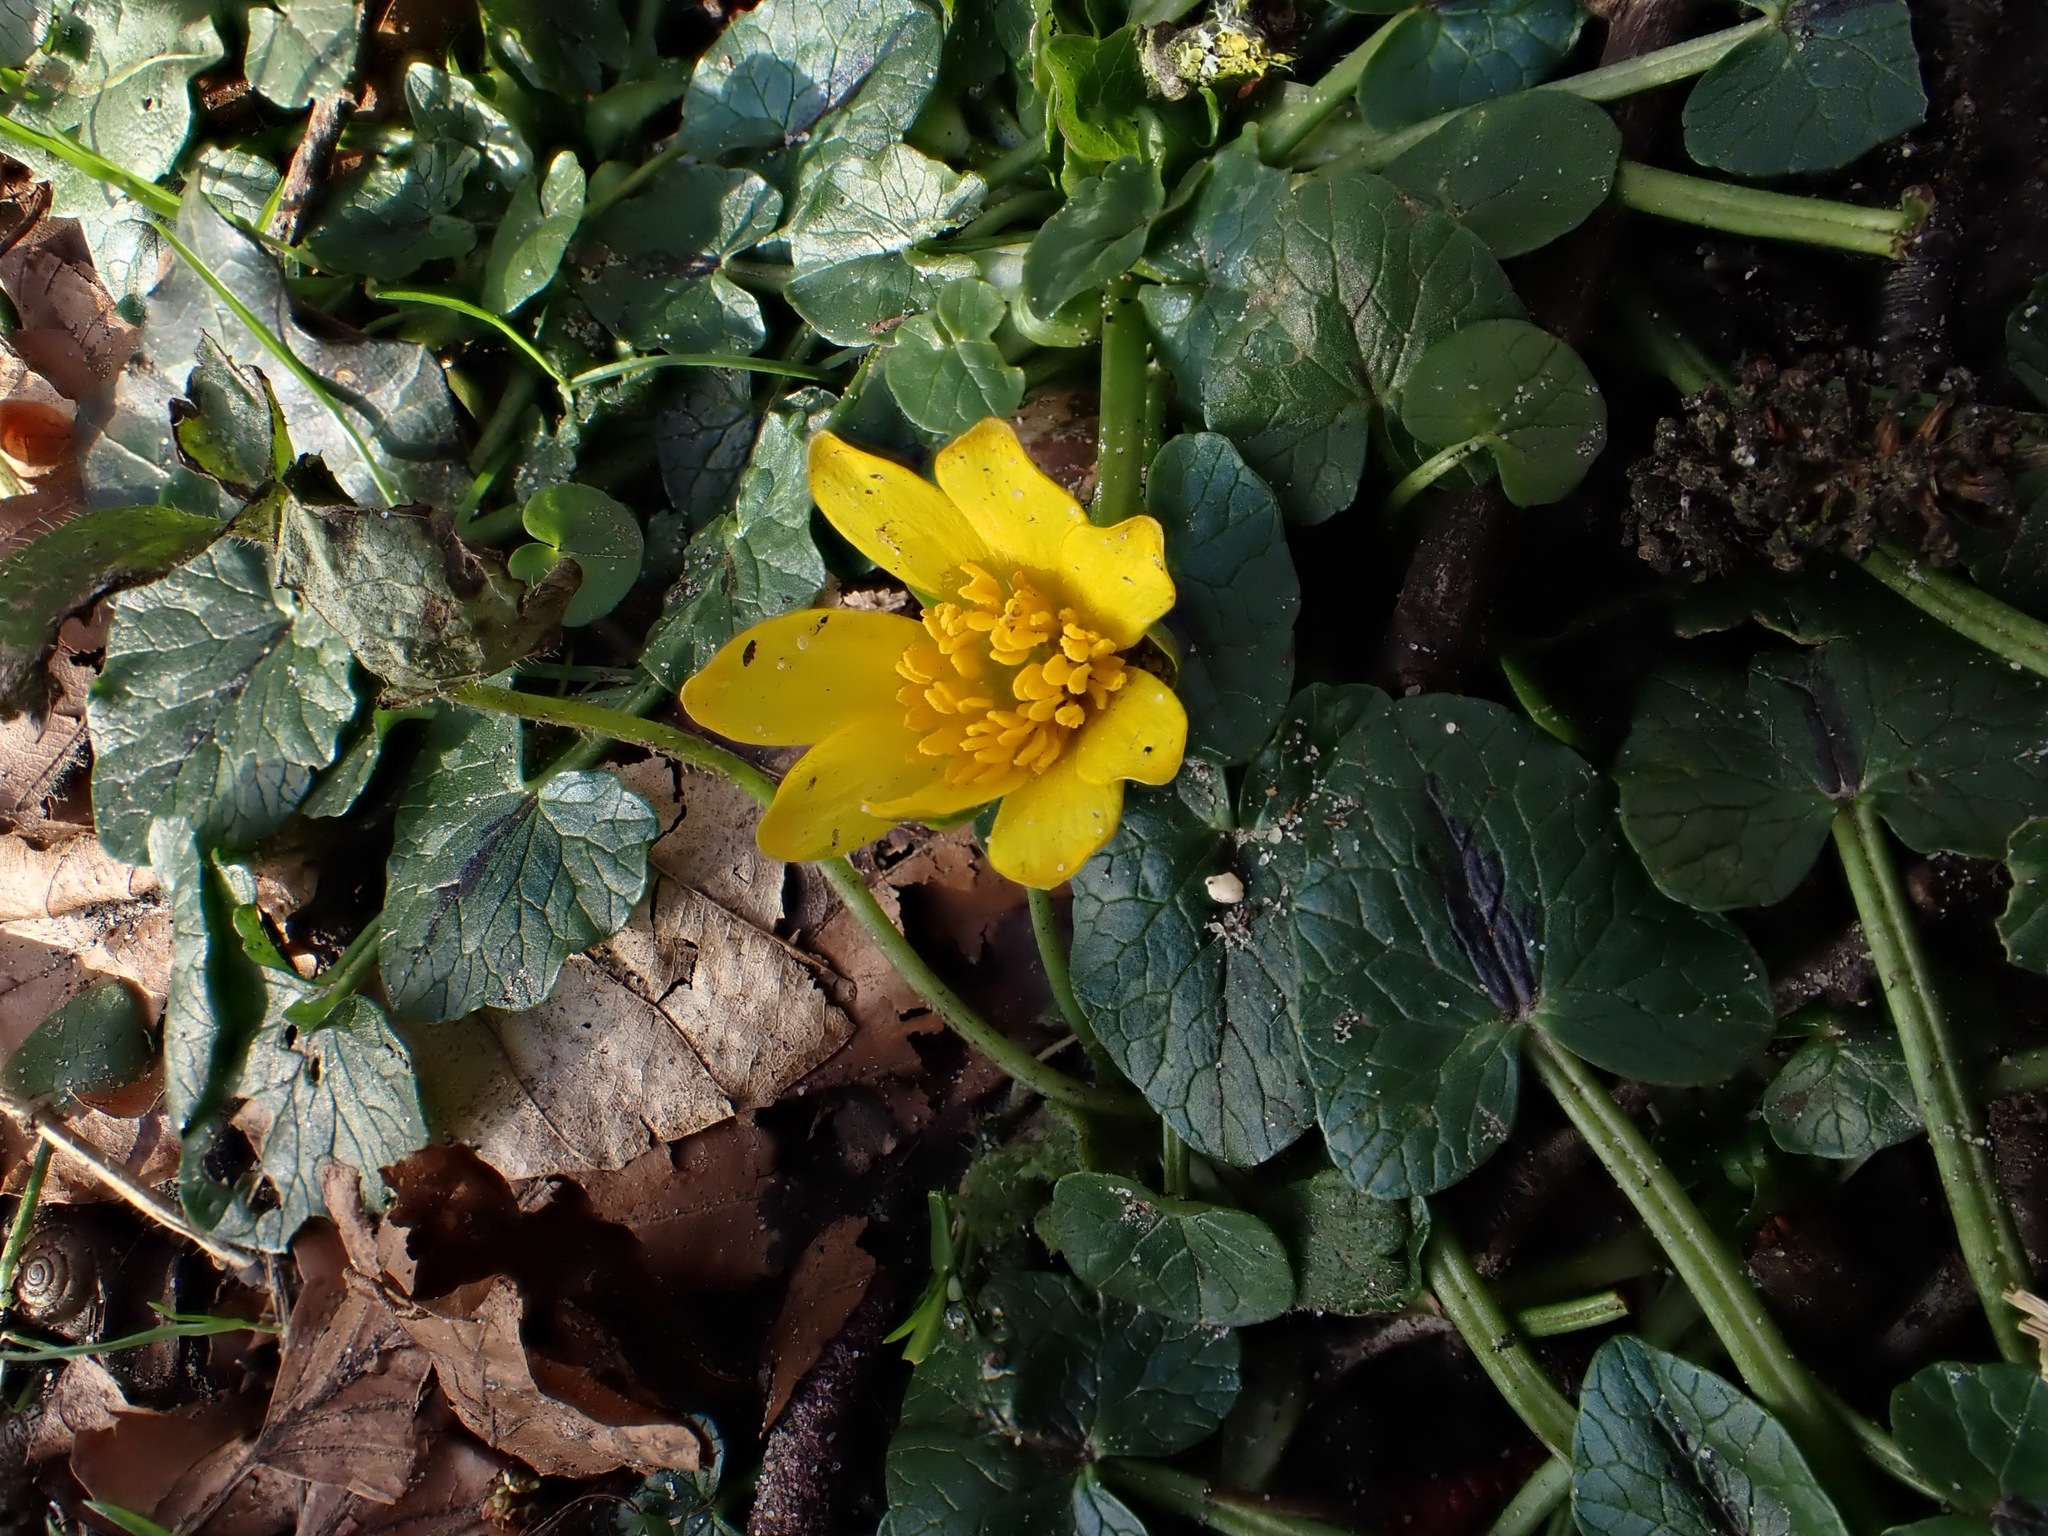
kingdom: Plantae
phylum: Tracheophyta
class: Magnoliopsida
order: Ranunculales
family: Ranunculaceae
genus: Ficaria
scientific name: Ficaria verna
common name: Lesser celandine
